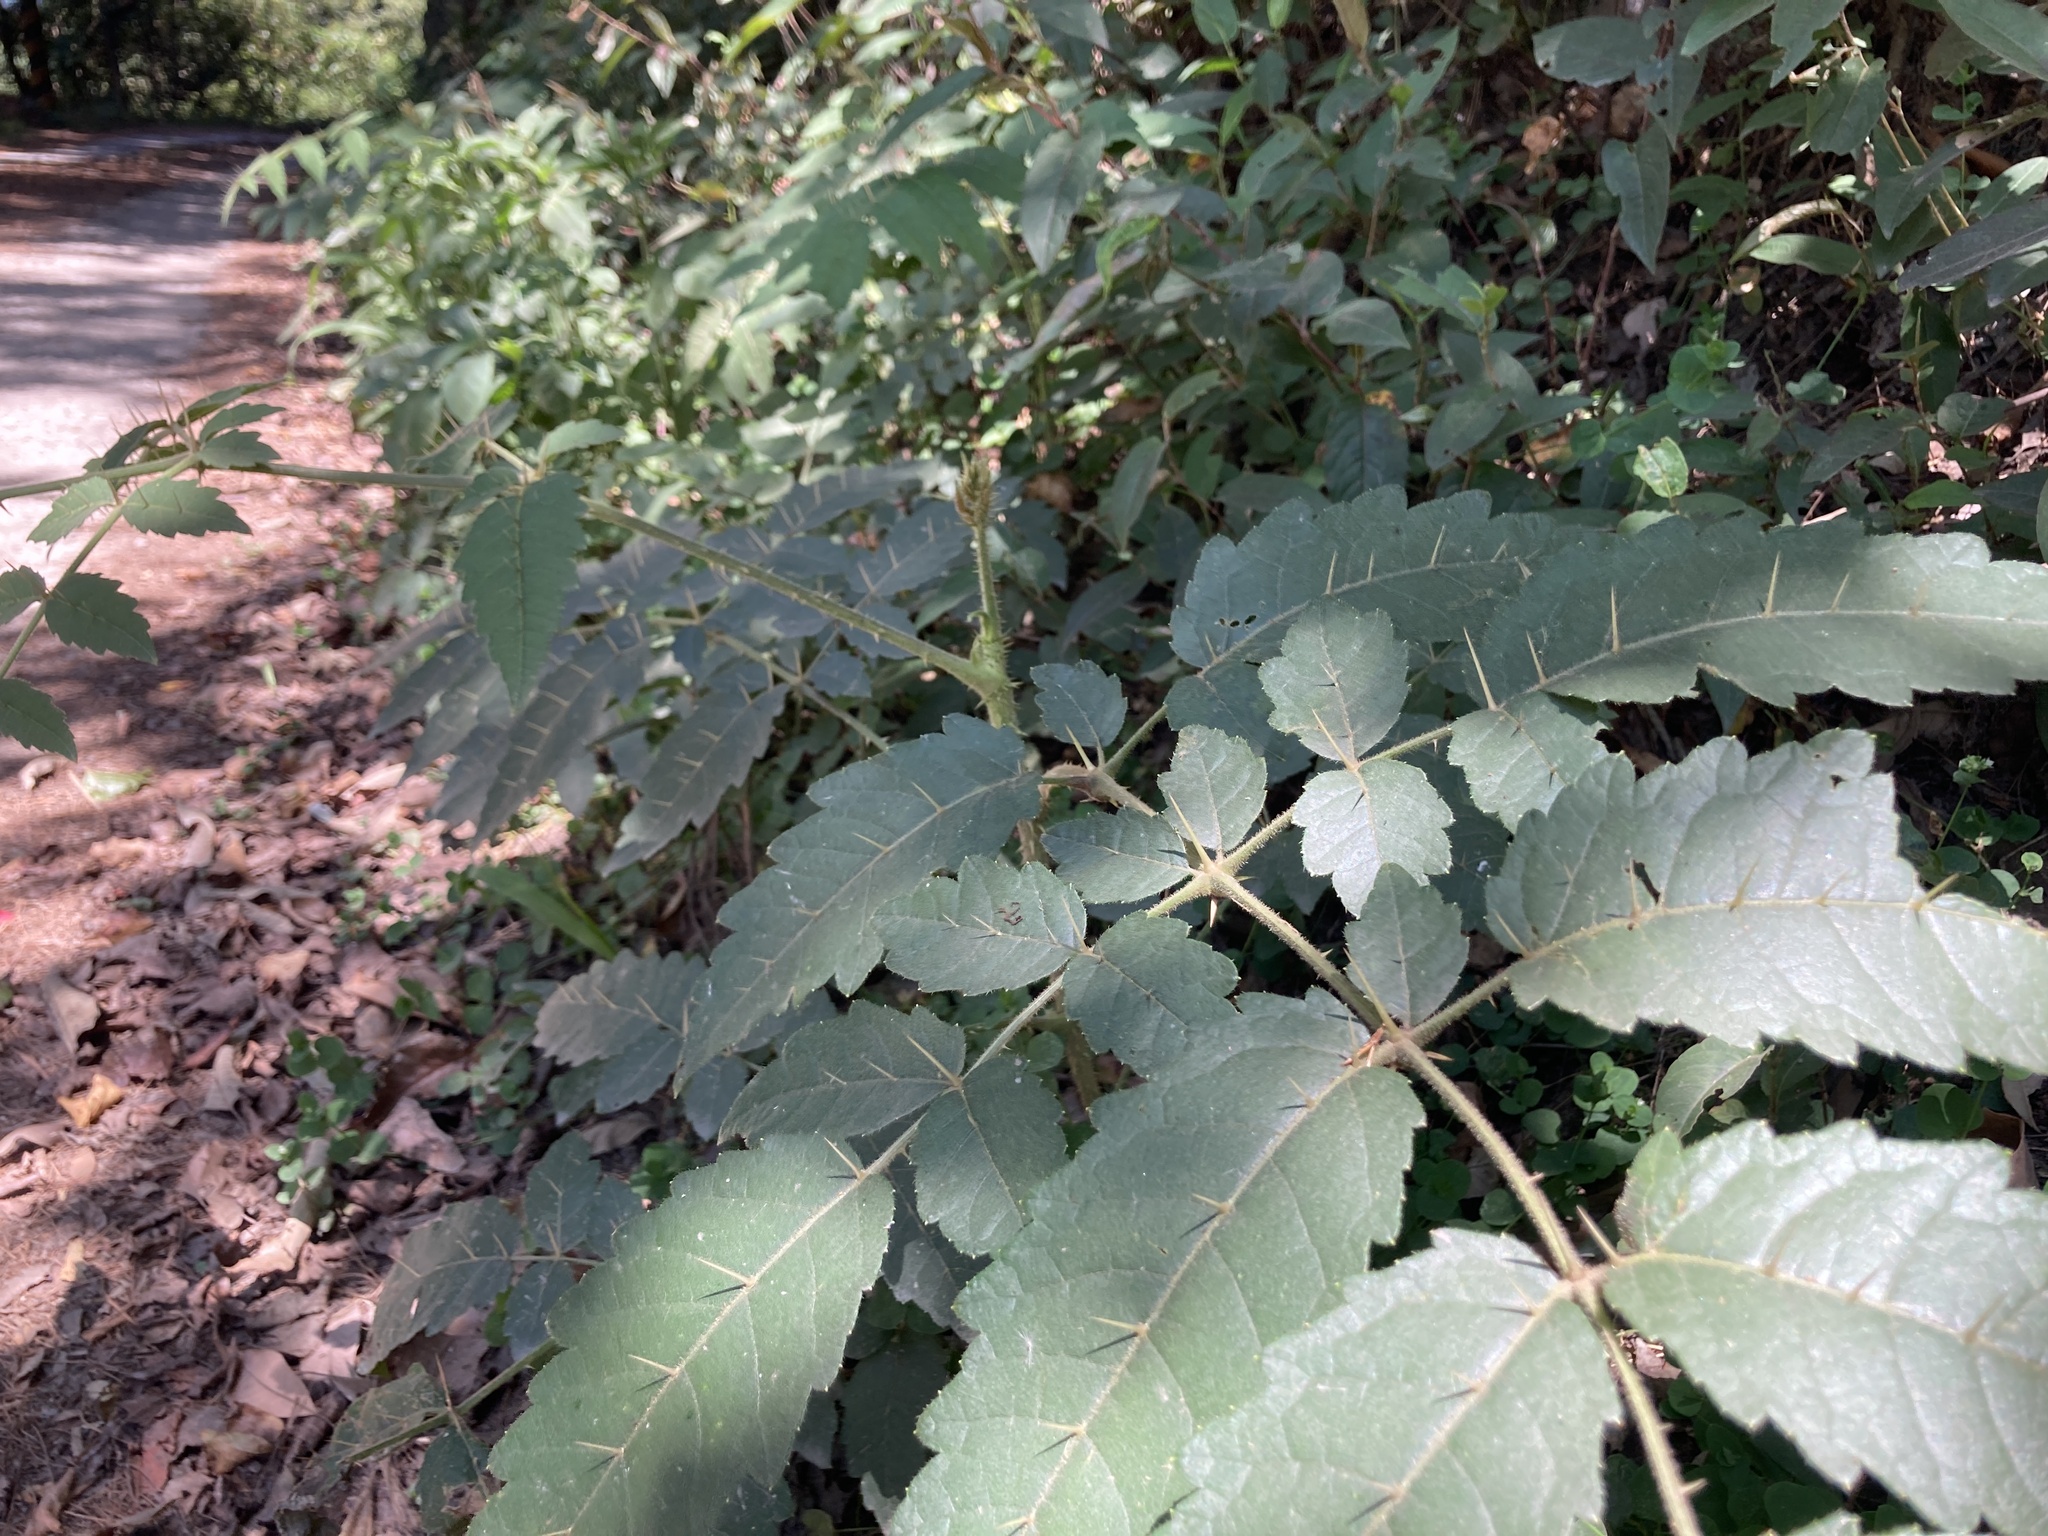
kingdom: Plantae
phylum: Tracheophyta
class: Magnoliopsida
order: Apiales
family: Araliaceae
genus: Aralia
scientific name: Aralia decaisneana
